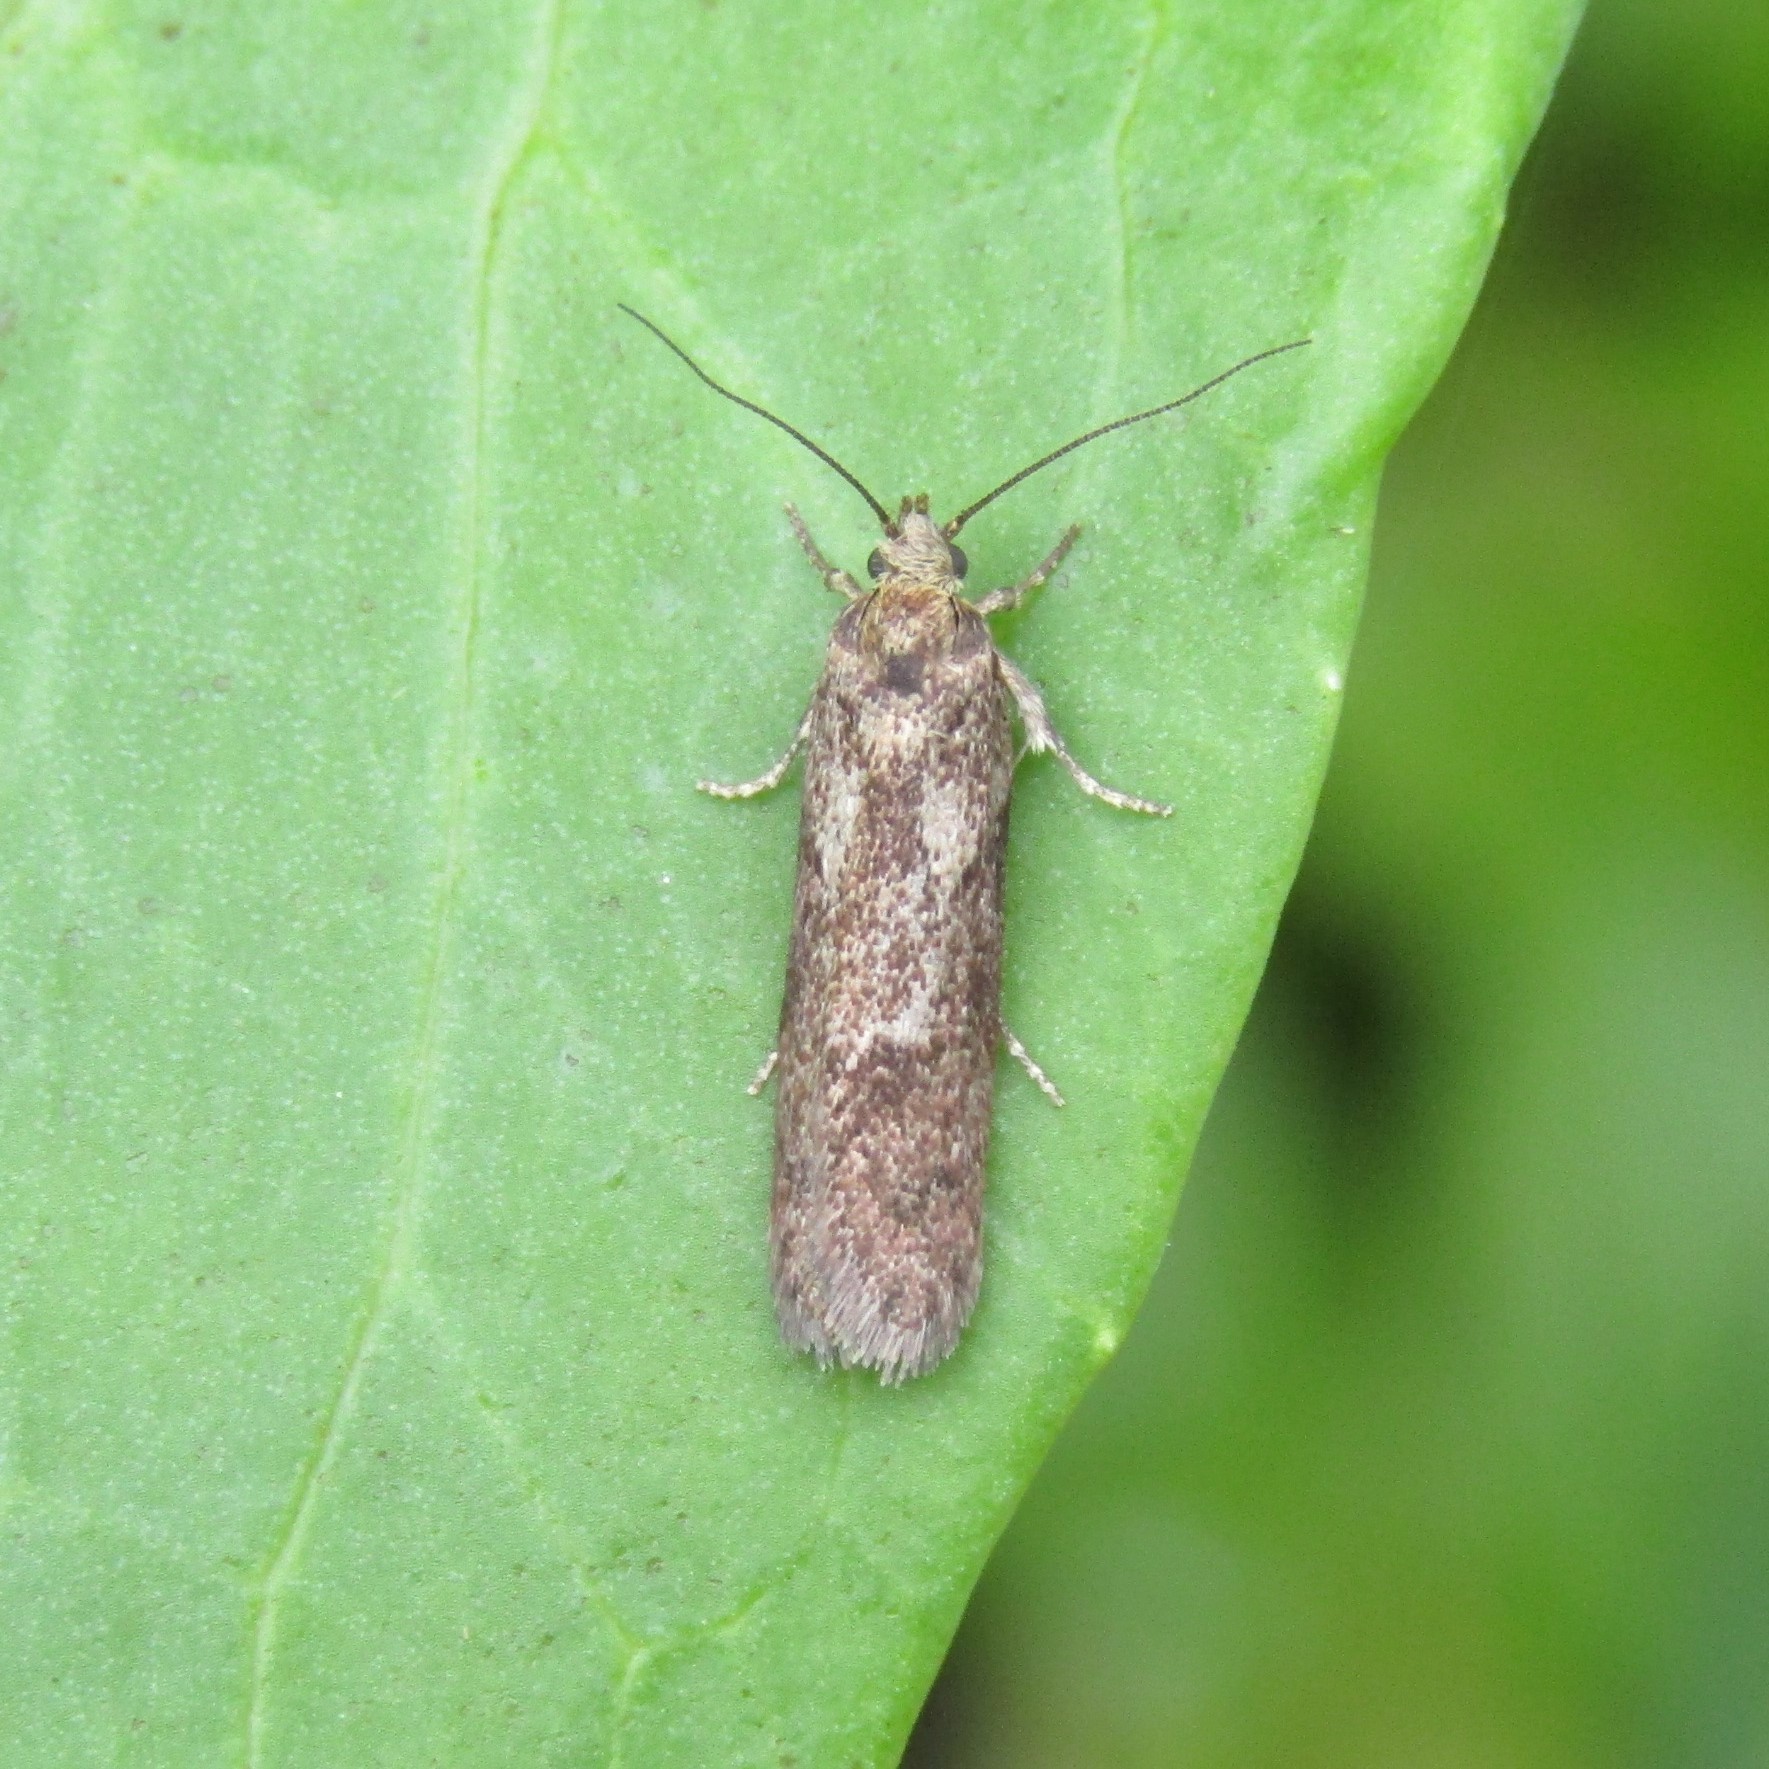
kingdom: Animalia
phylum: Arthropoda
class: Insecta
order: Lepidoptera
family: Oecophoridae
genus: Chersadaula
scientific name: Chersadaula ochrogastra
